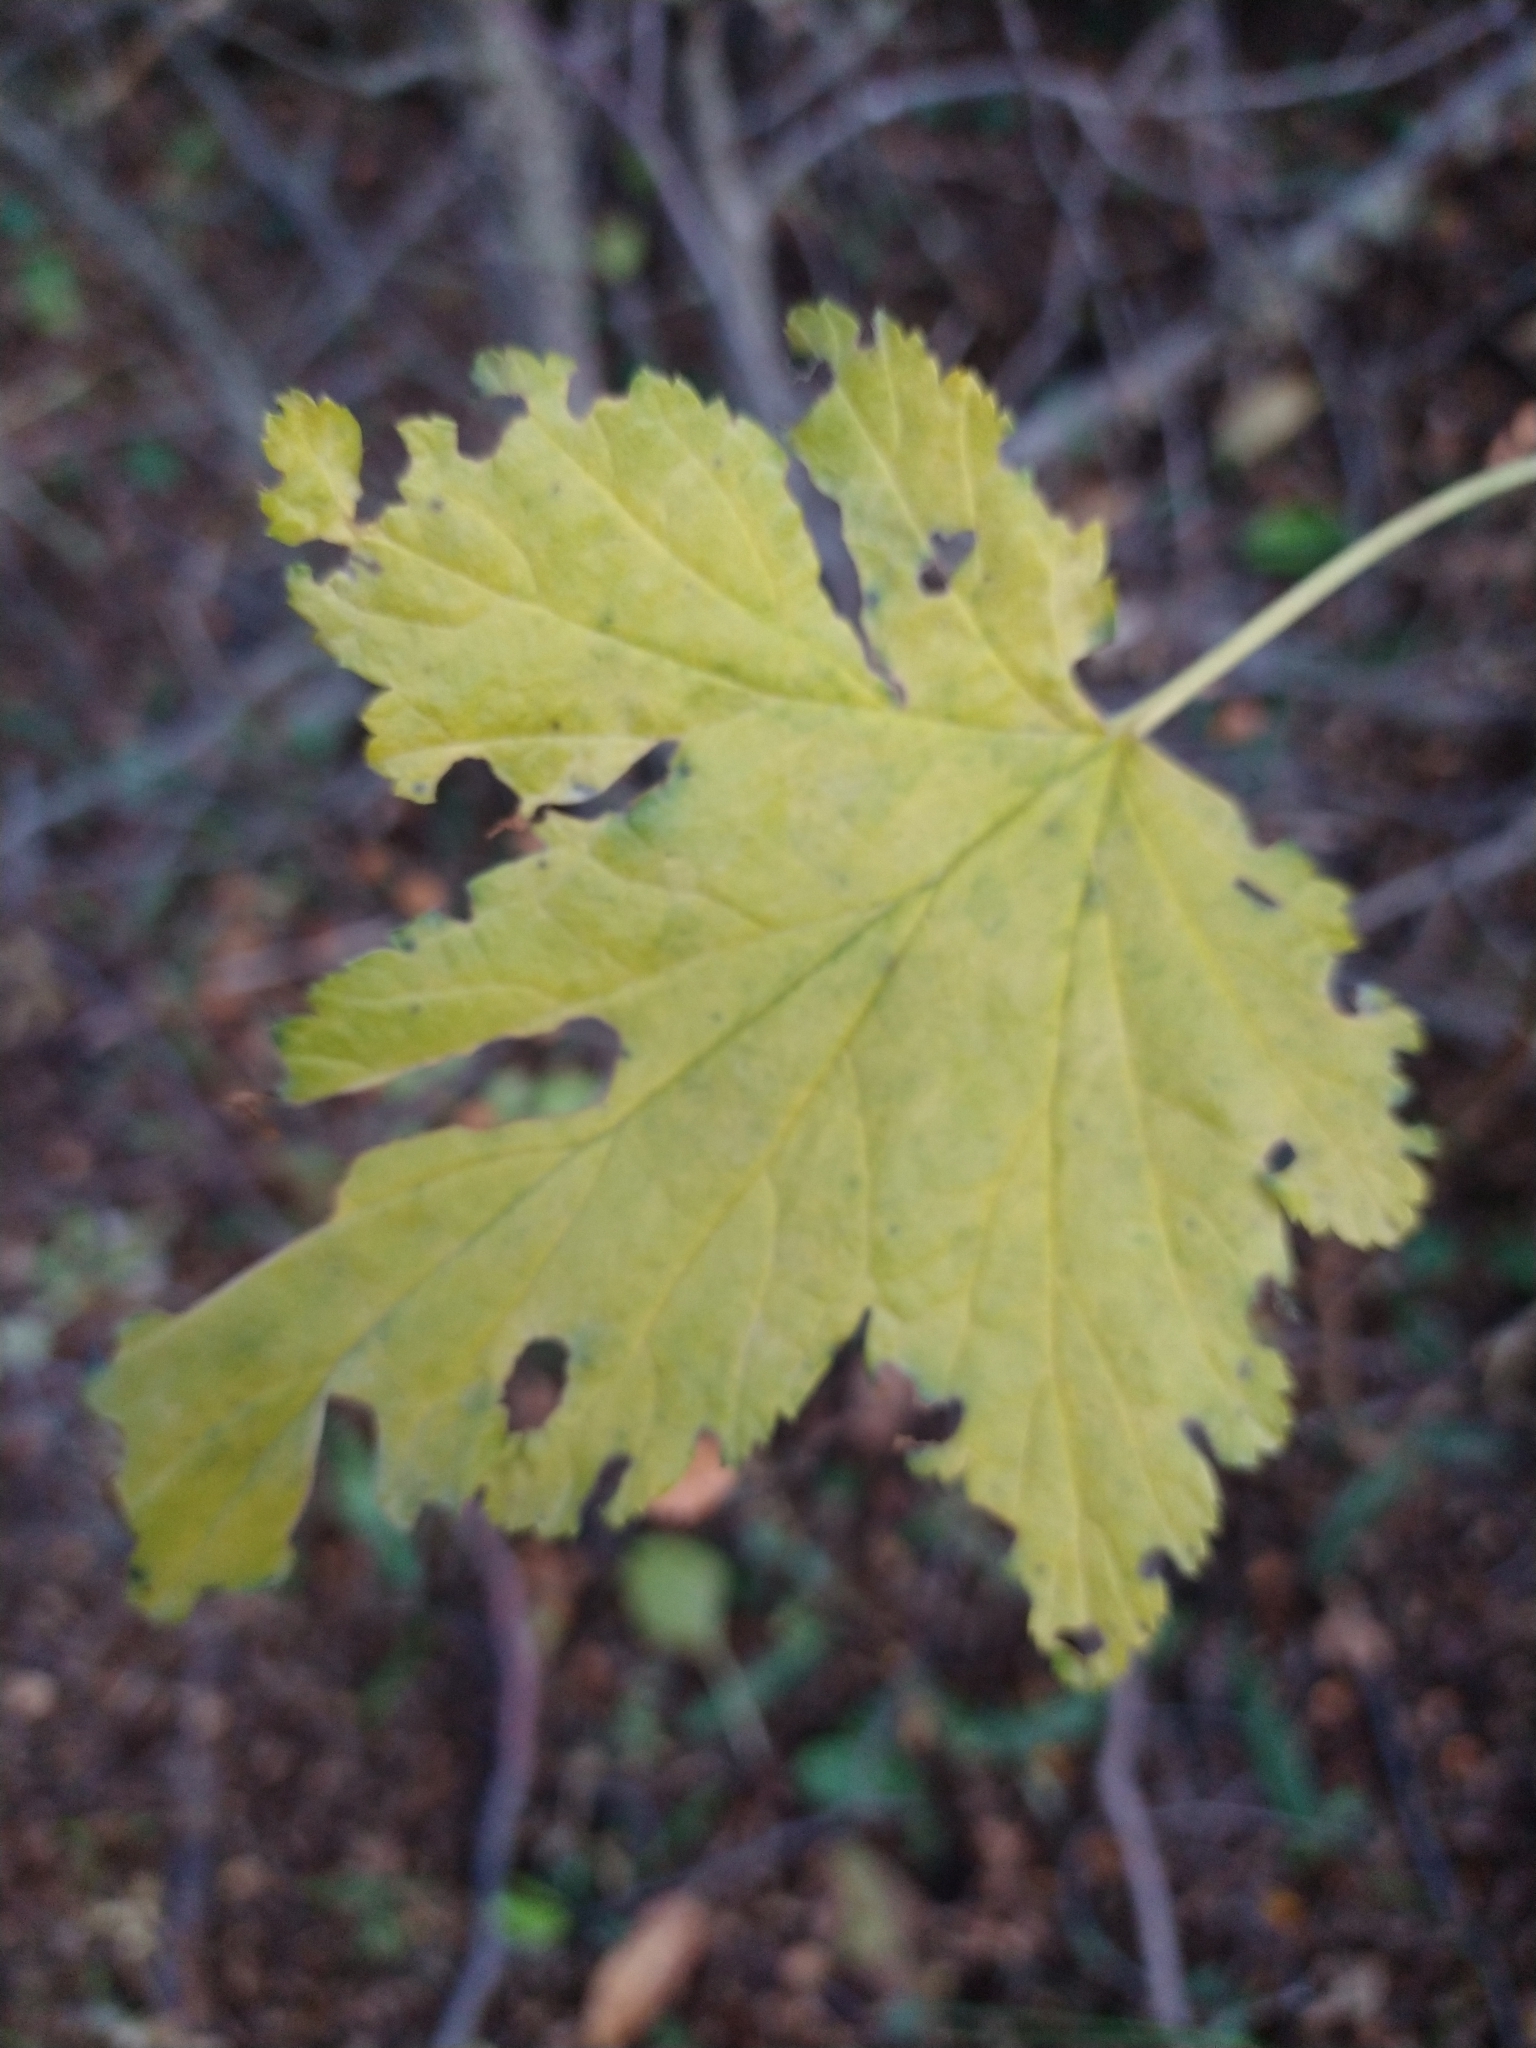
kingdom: Plantae
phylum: Tracheophyta
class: Magnoliopsida
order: Saxifragales
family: Grossulariaceae
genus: Ribes
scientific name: Ribes magellanicum
